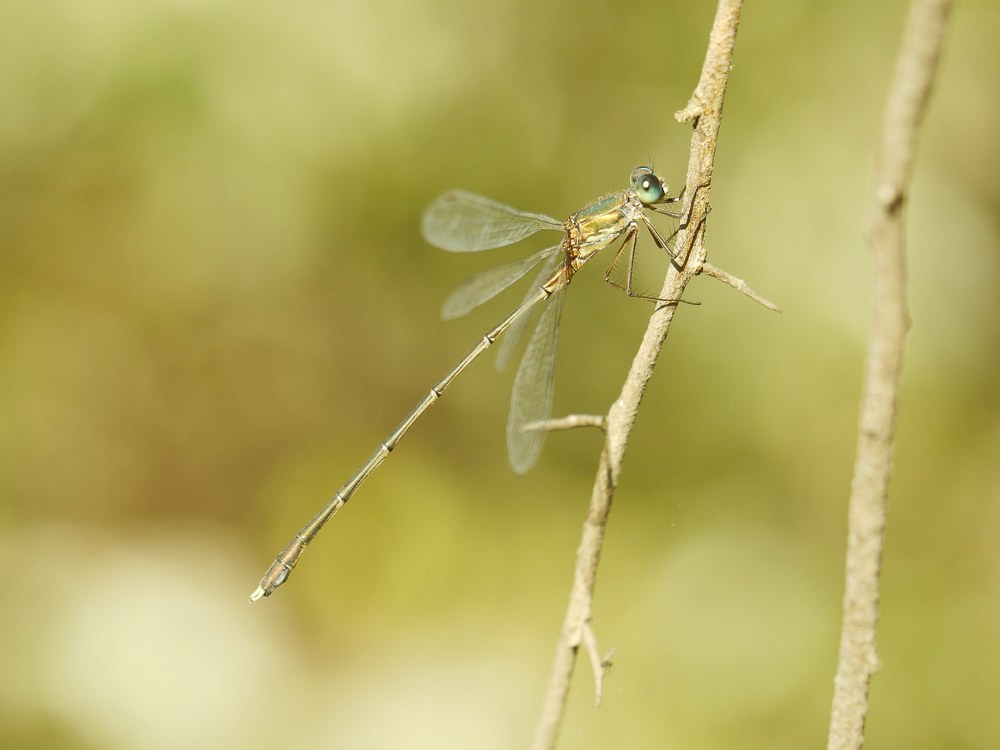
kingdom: Animalia
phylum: Arthropoda
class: Insecta
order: Odonata
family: Lestidae
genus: Chalcolestes
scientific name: Chalcolestes parvidens
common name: Eastern willow spreadwing
